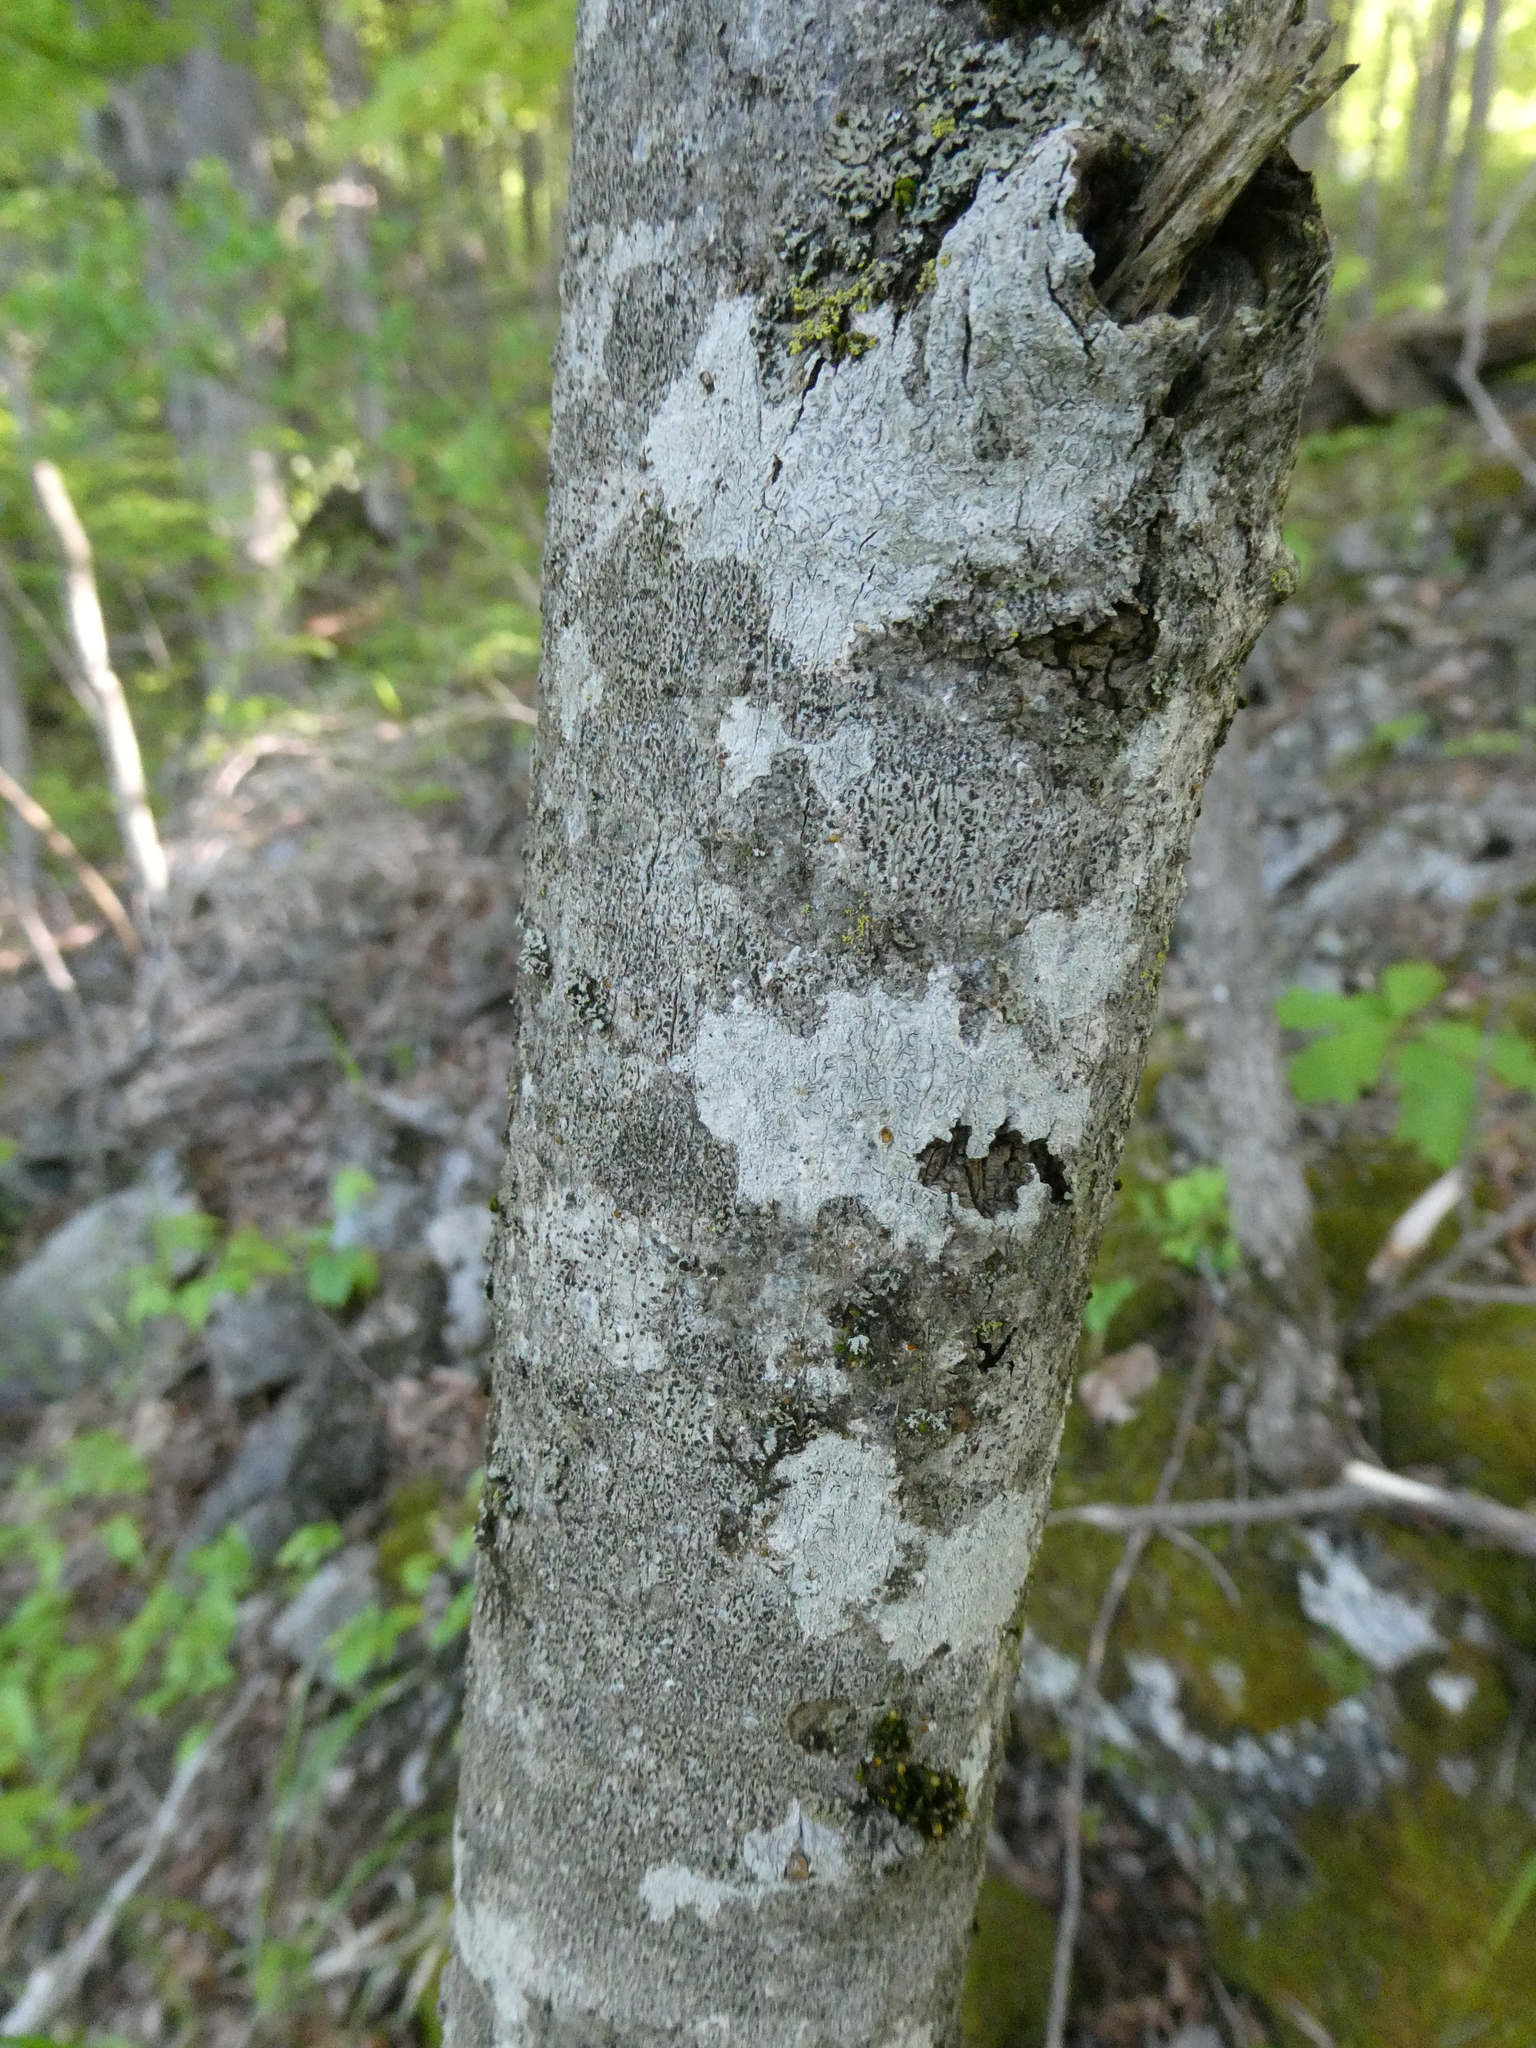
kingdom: Plantae
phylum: Tracheophyta
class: Magnoliopsida
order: Malvales
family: Malvaceae
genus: Tilia
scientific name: Tilia americana
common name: Basswood
